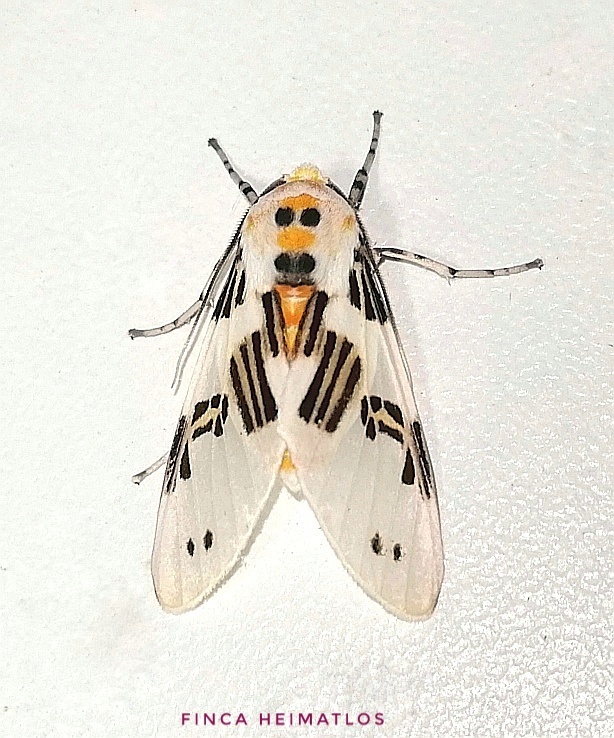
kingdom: Animalia
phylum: Arthropoda
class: Insecta
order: Lepidoptera
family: Erebidae
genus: Idalus
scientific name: Idalus daga
